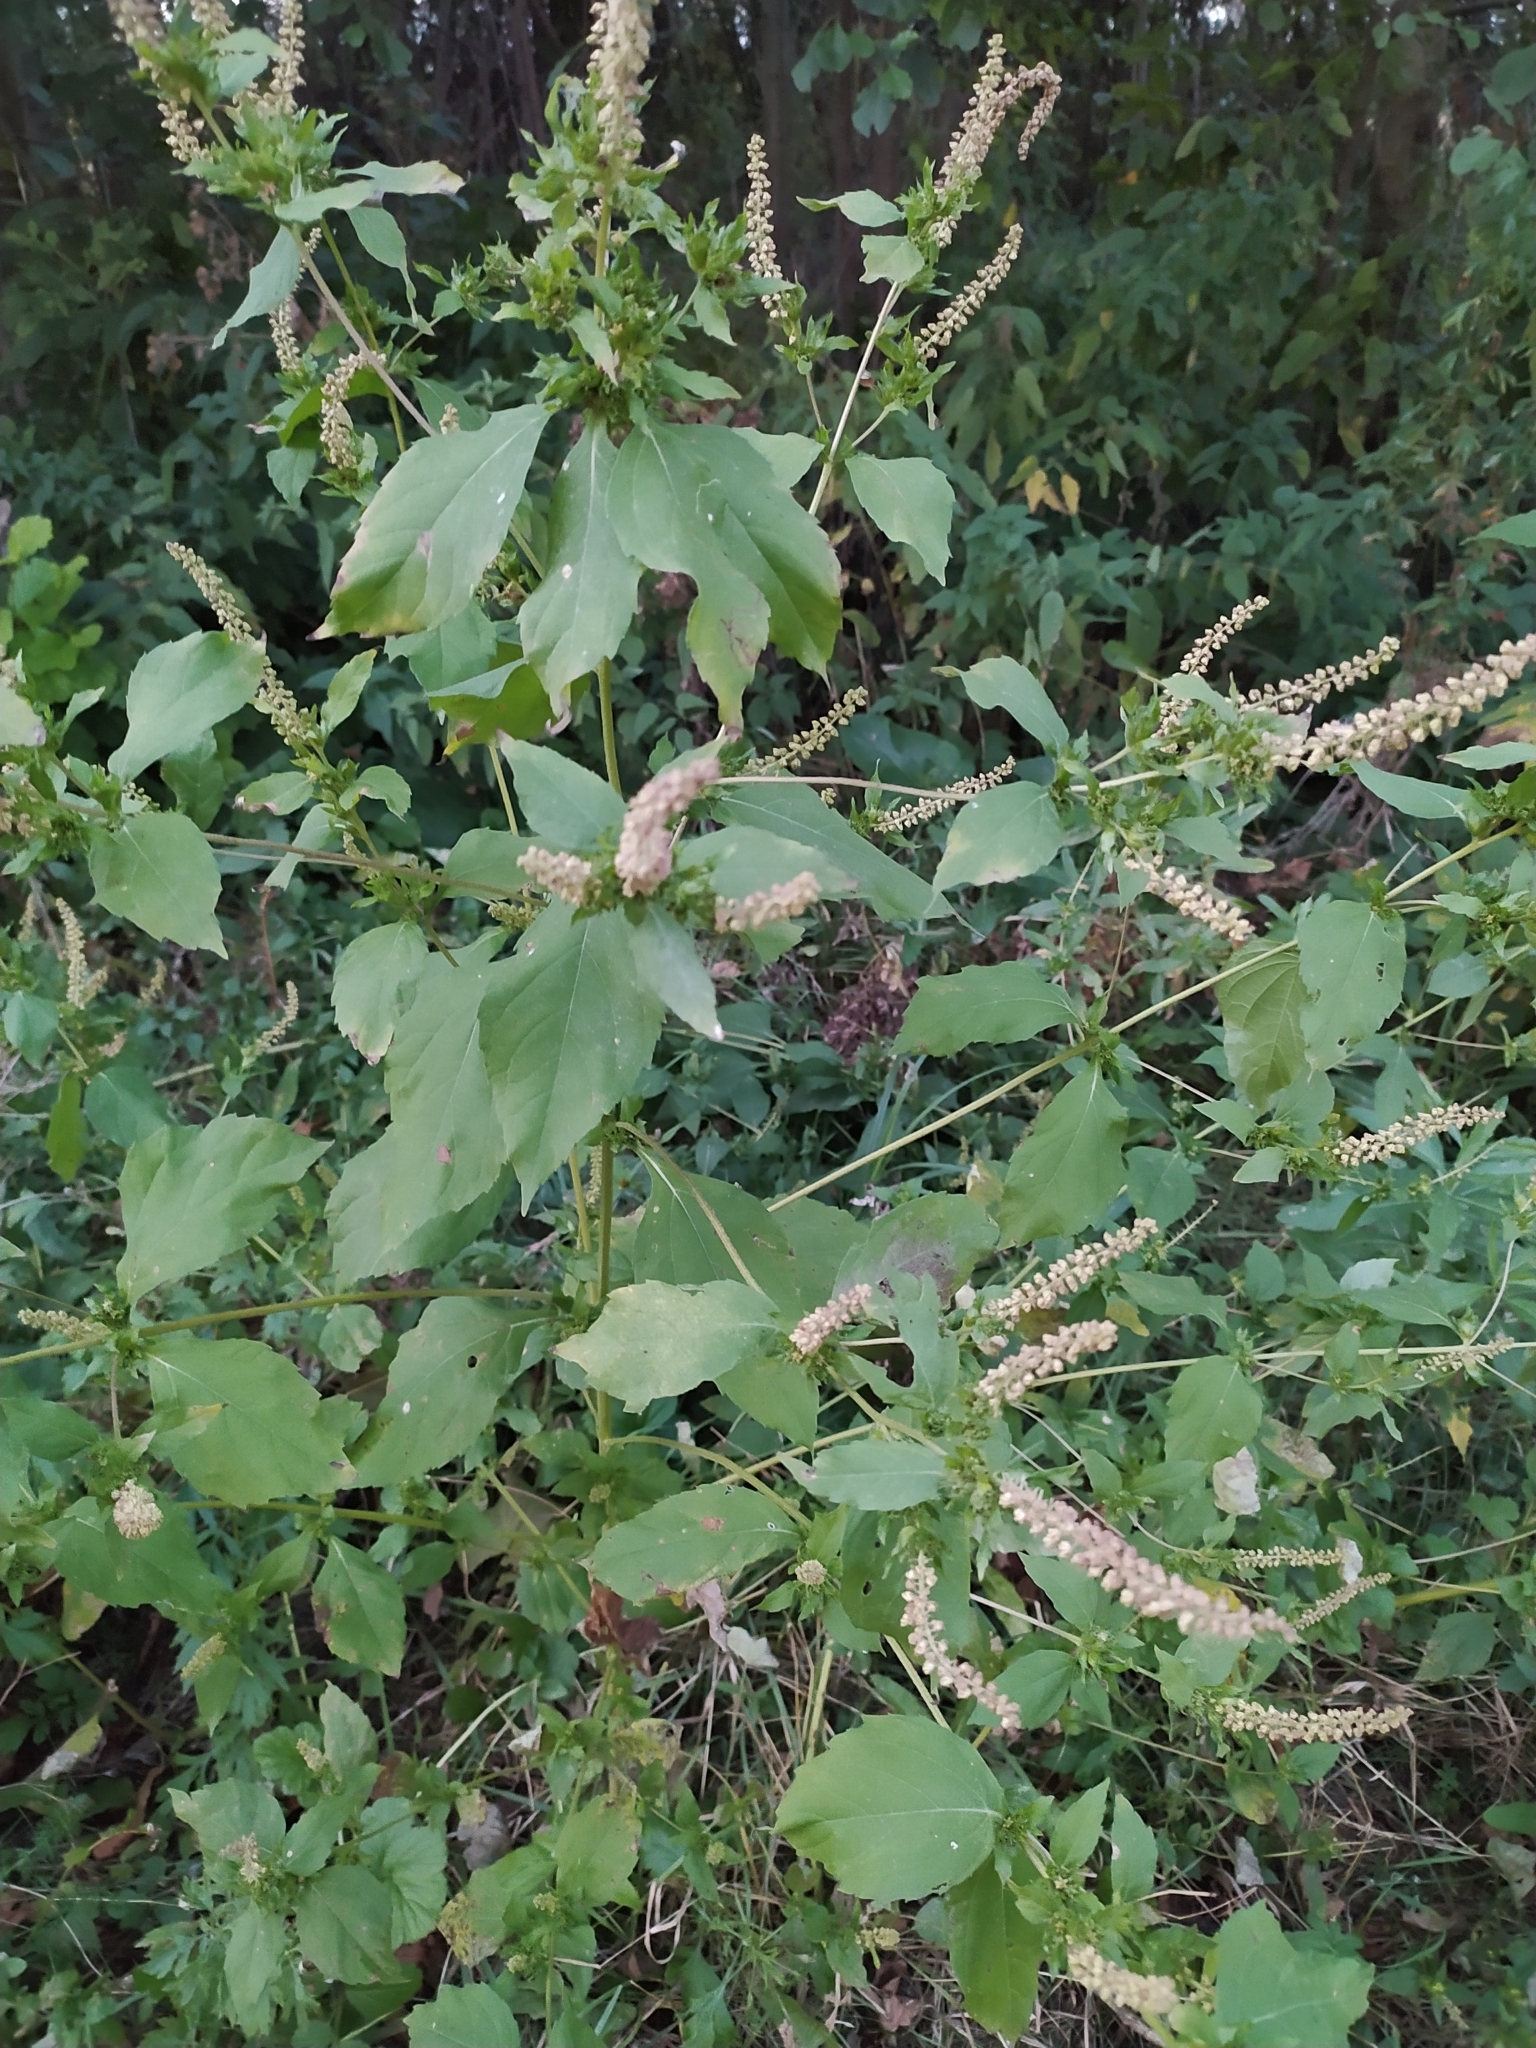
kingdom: Plantae
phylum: Tracheophyta
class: Magnoliopsida
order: Lamiales
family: Lamiaceae
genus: Elsholtzia
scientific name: Elsholtzia ciliata
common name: Ciliate elsholtzia
